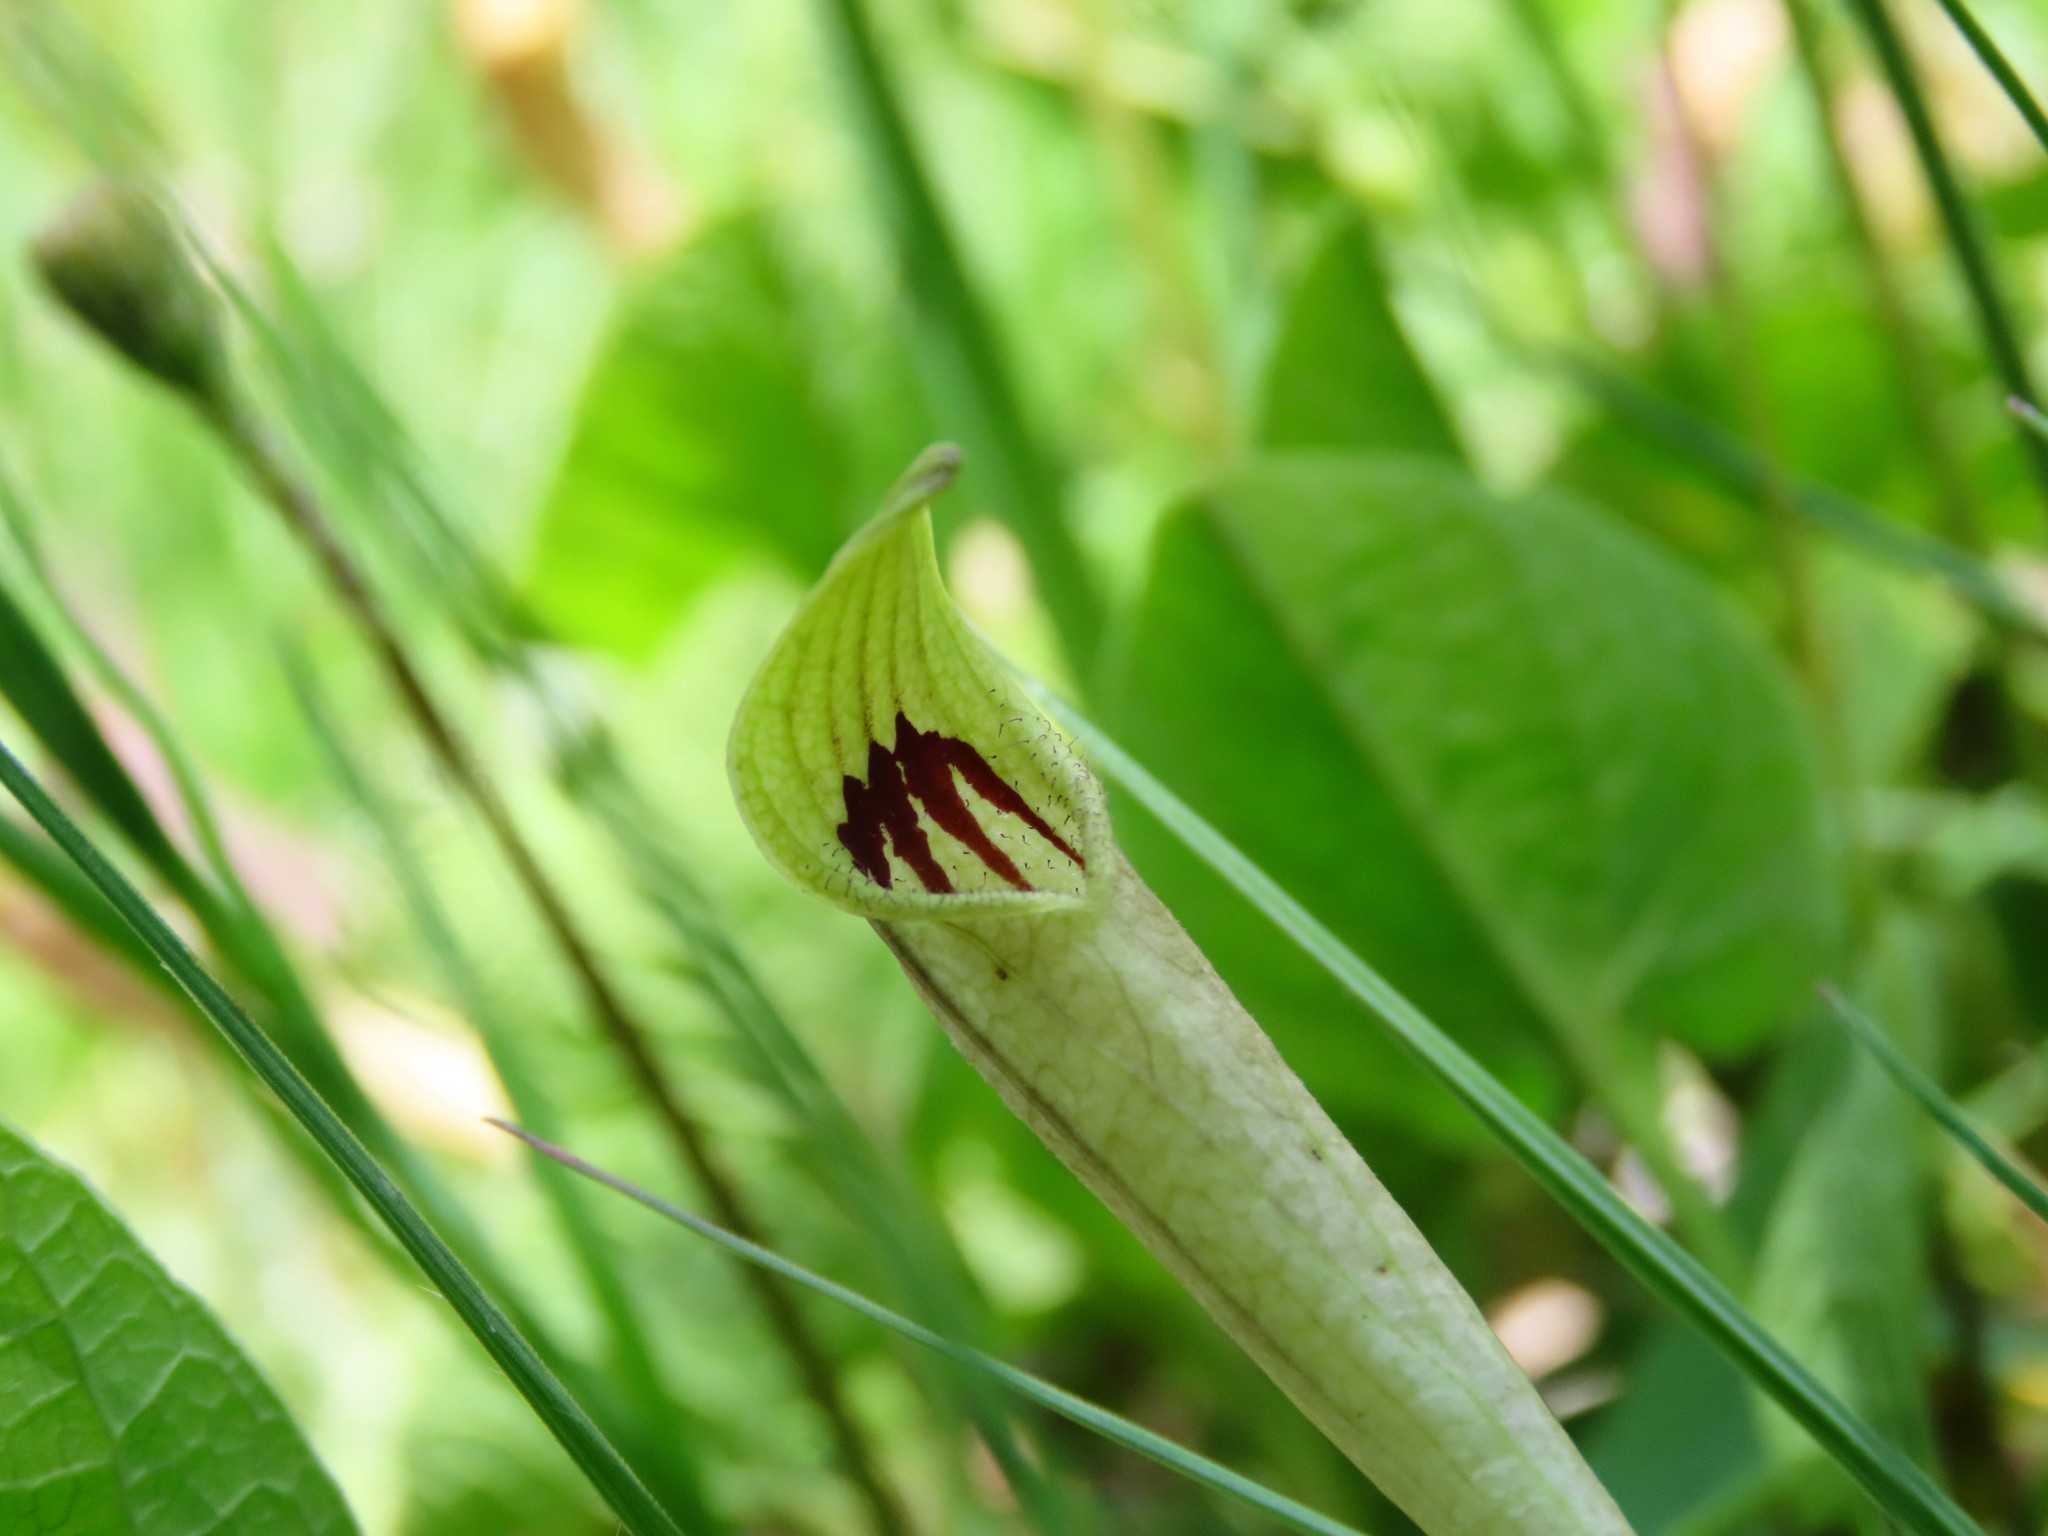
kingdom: Plantae
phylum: Tracheophyta
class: Magnoliopsida
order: Piperales
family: Aristolochiaceae
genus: Aristolochia
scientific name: Aristolochia lutea
